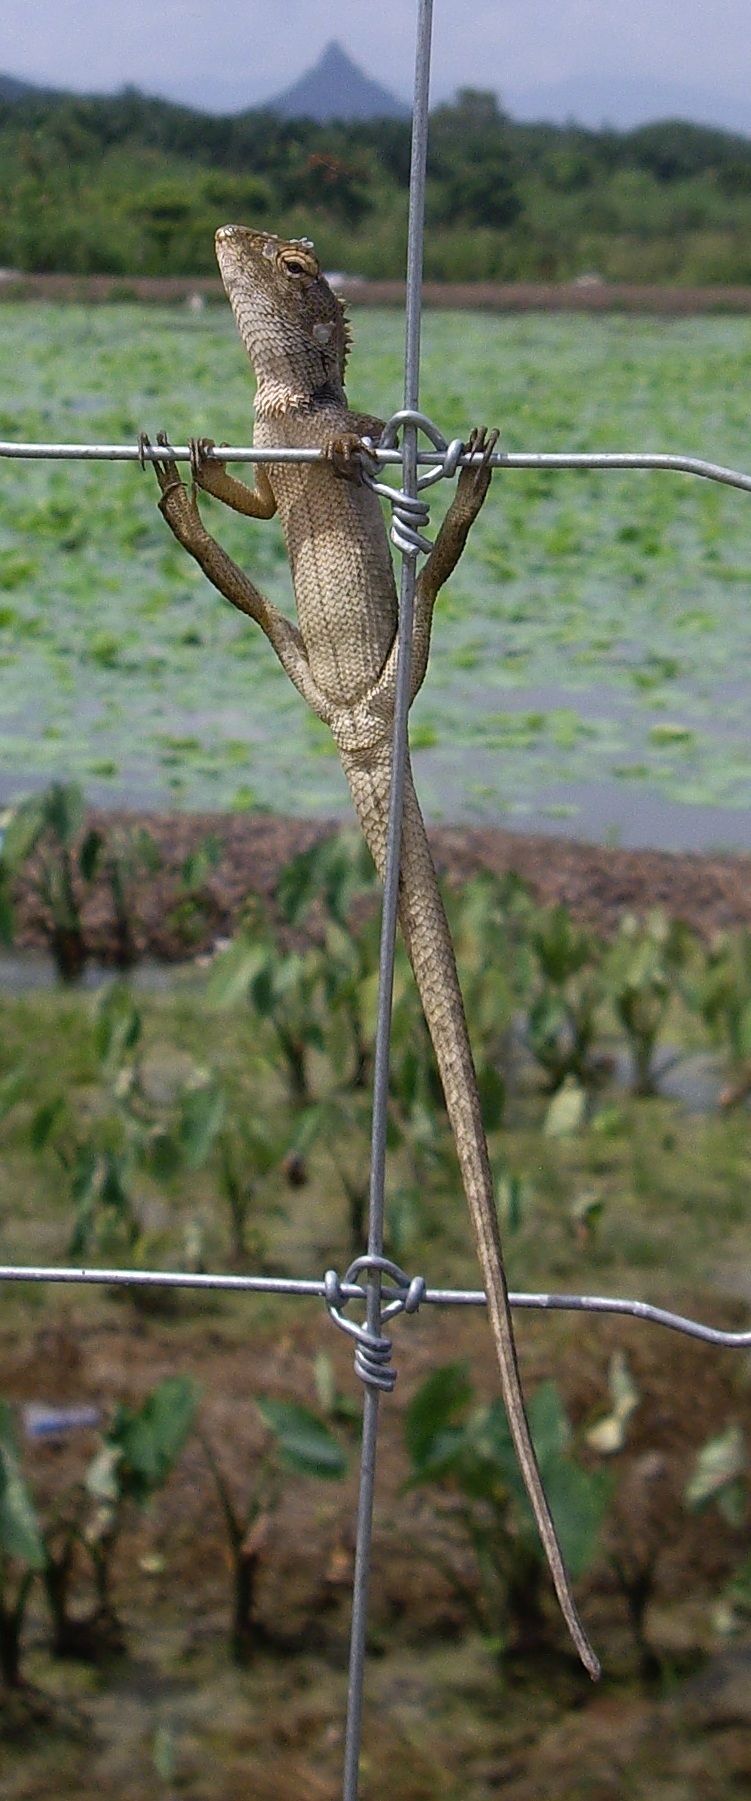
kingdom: Animalia
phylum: Chordata
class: Squamata
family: Agamidae
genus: Calotes
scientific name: Calotes versicolor
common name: Oriental garden lizard
